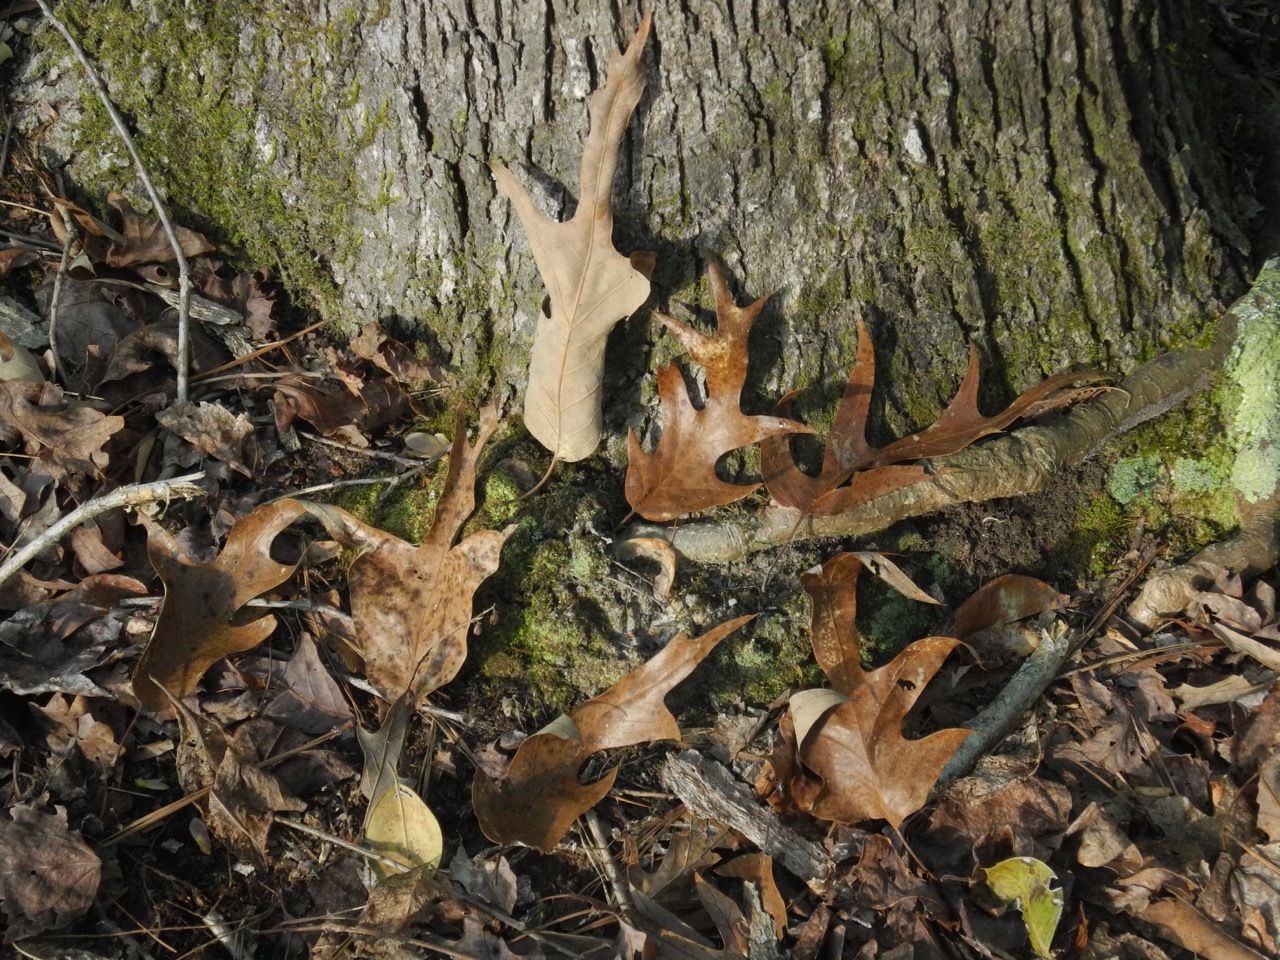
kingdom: Plantae
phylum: Tracheophyta
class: Magnoliopsida
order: Fagales
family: Fagaceae
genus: Quercus
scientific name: Quercus falcata
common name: Southern red oak
